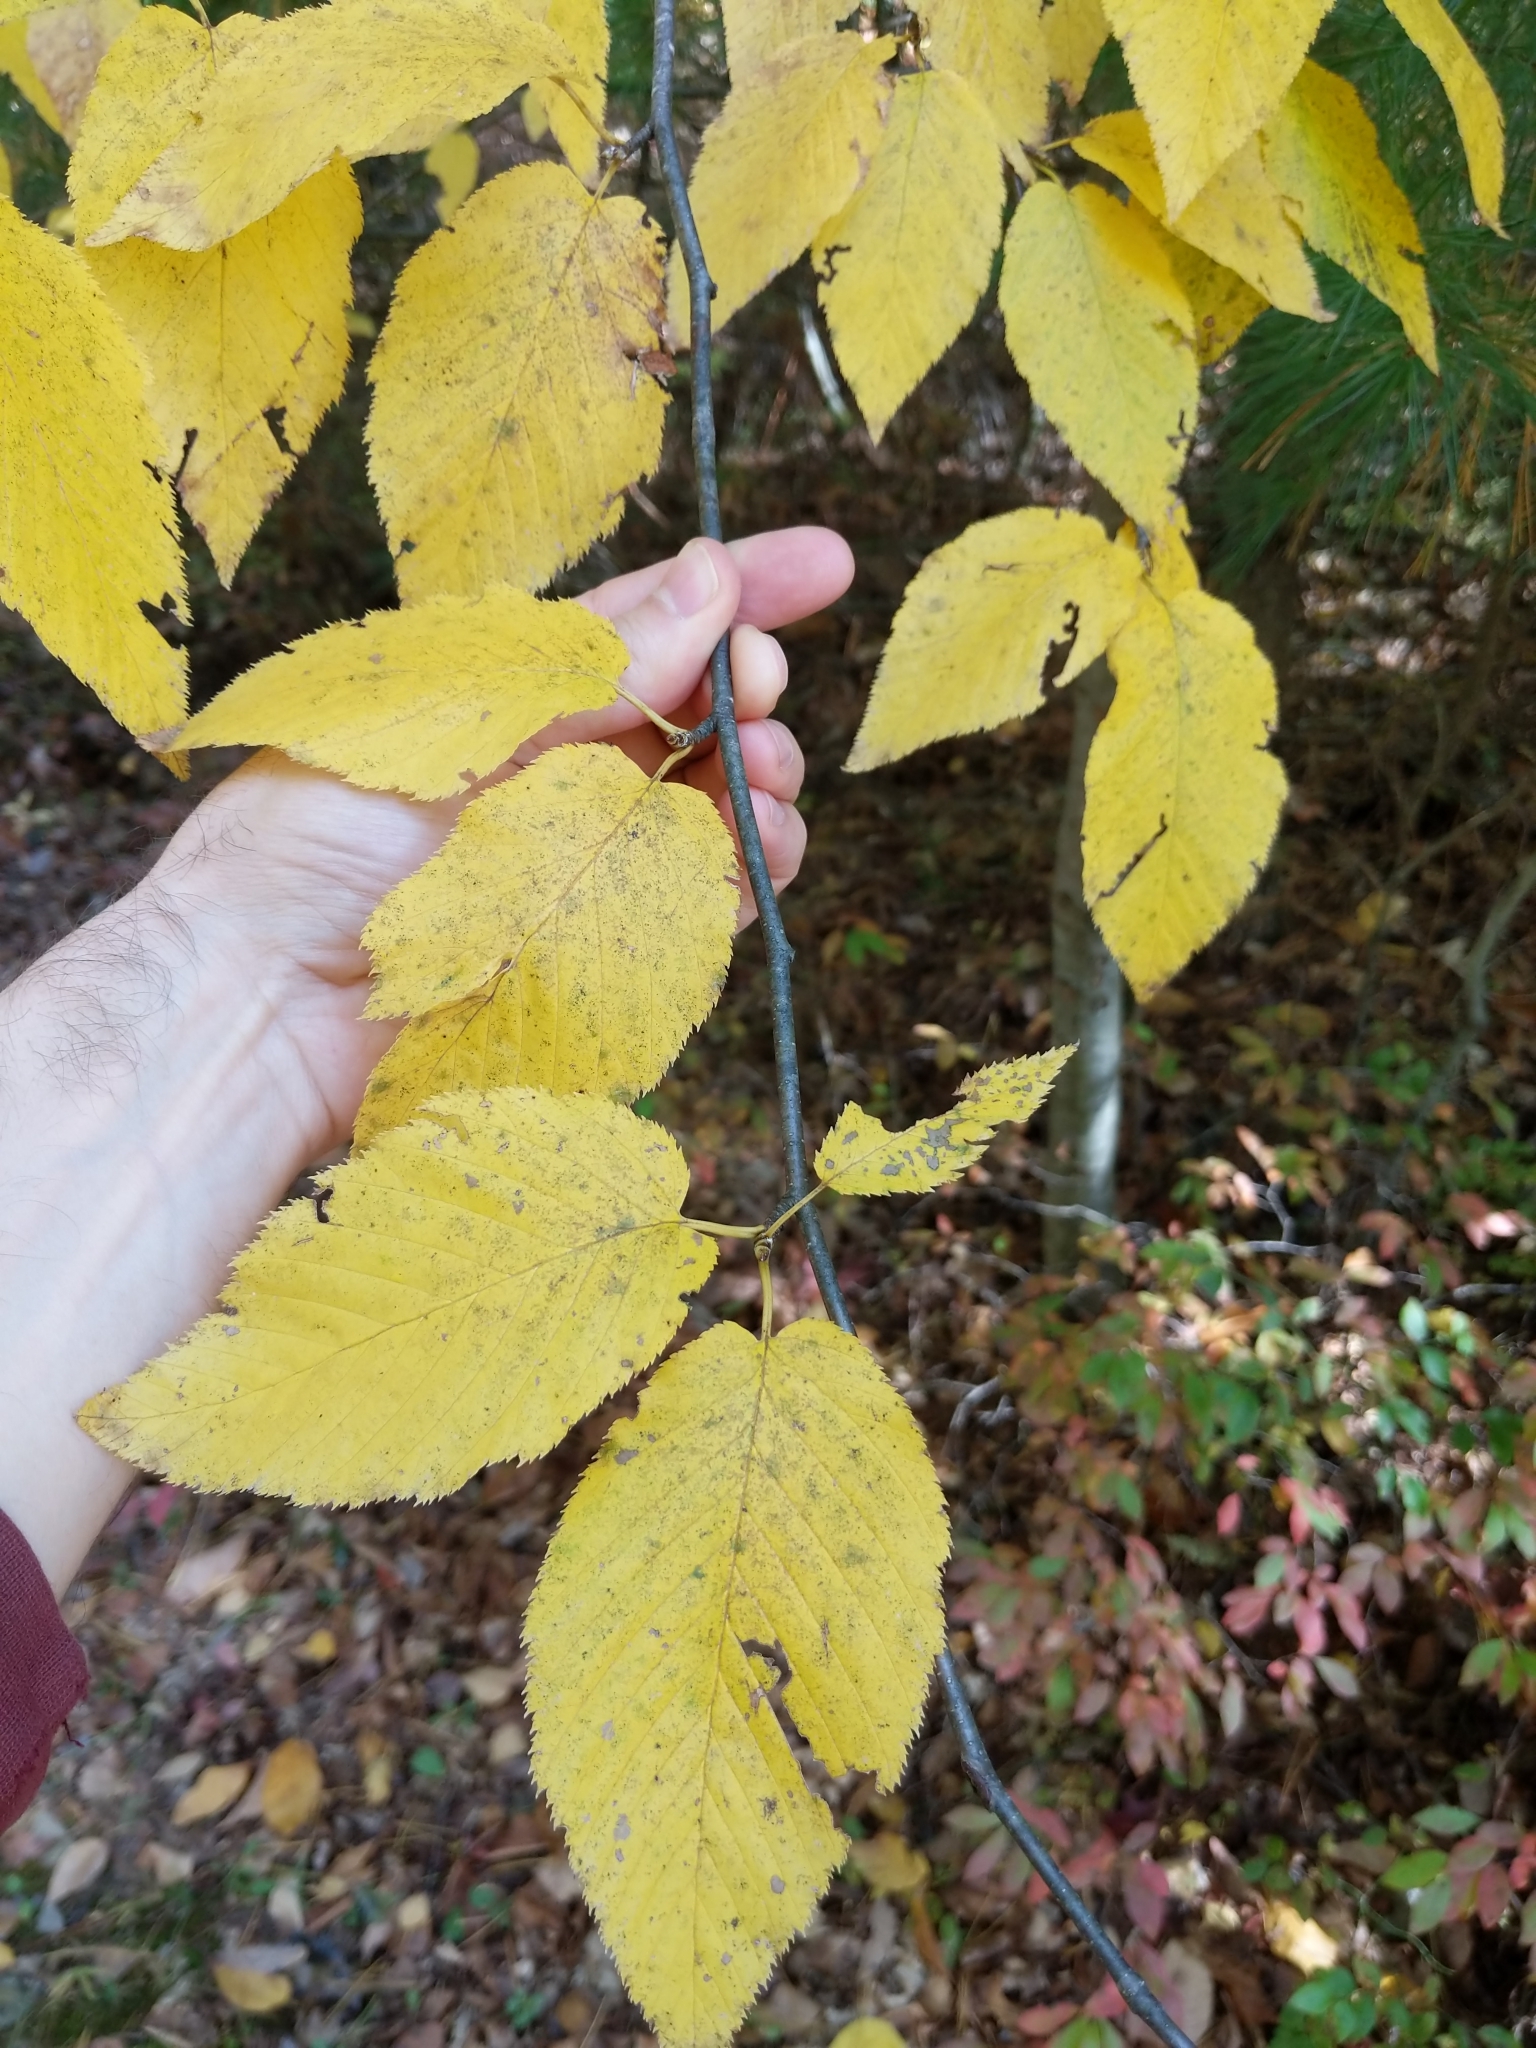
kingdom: Plantae
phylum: Tracheophyta
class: Magnoliopsida
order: Fagales
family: Betulaceae
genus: Betula
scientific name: Betula lenta
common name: Black birch
